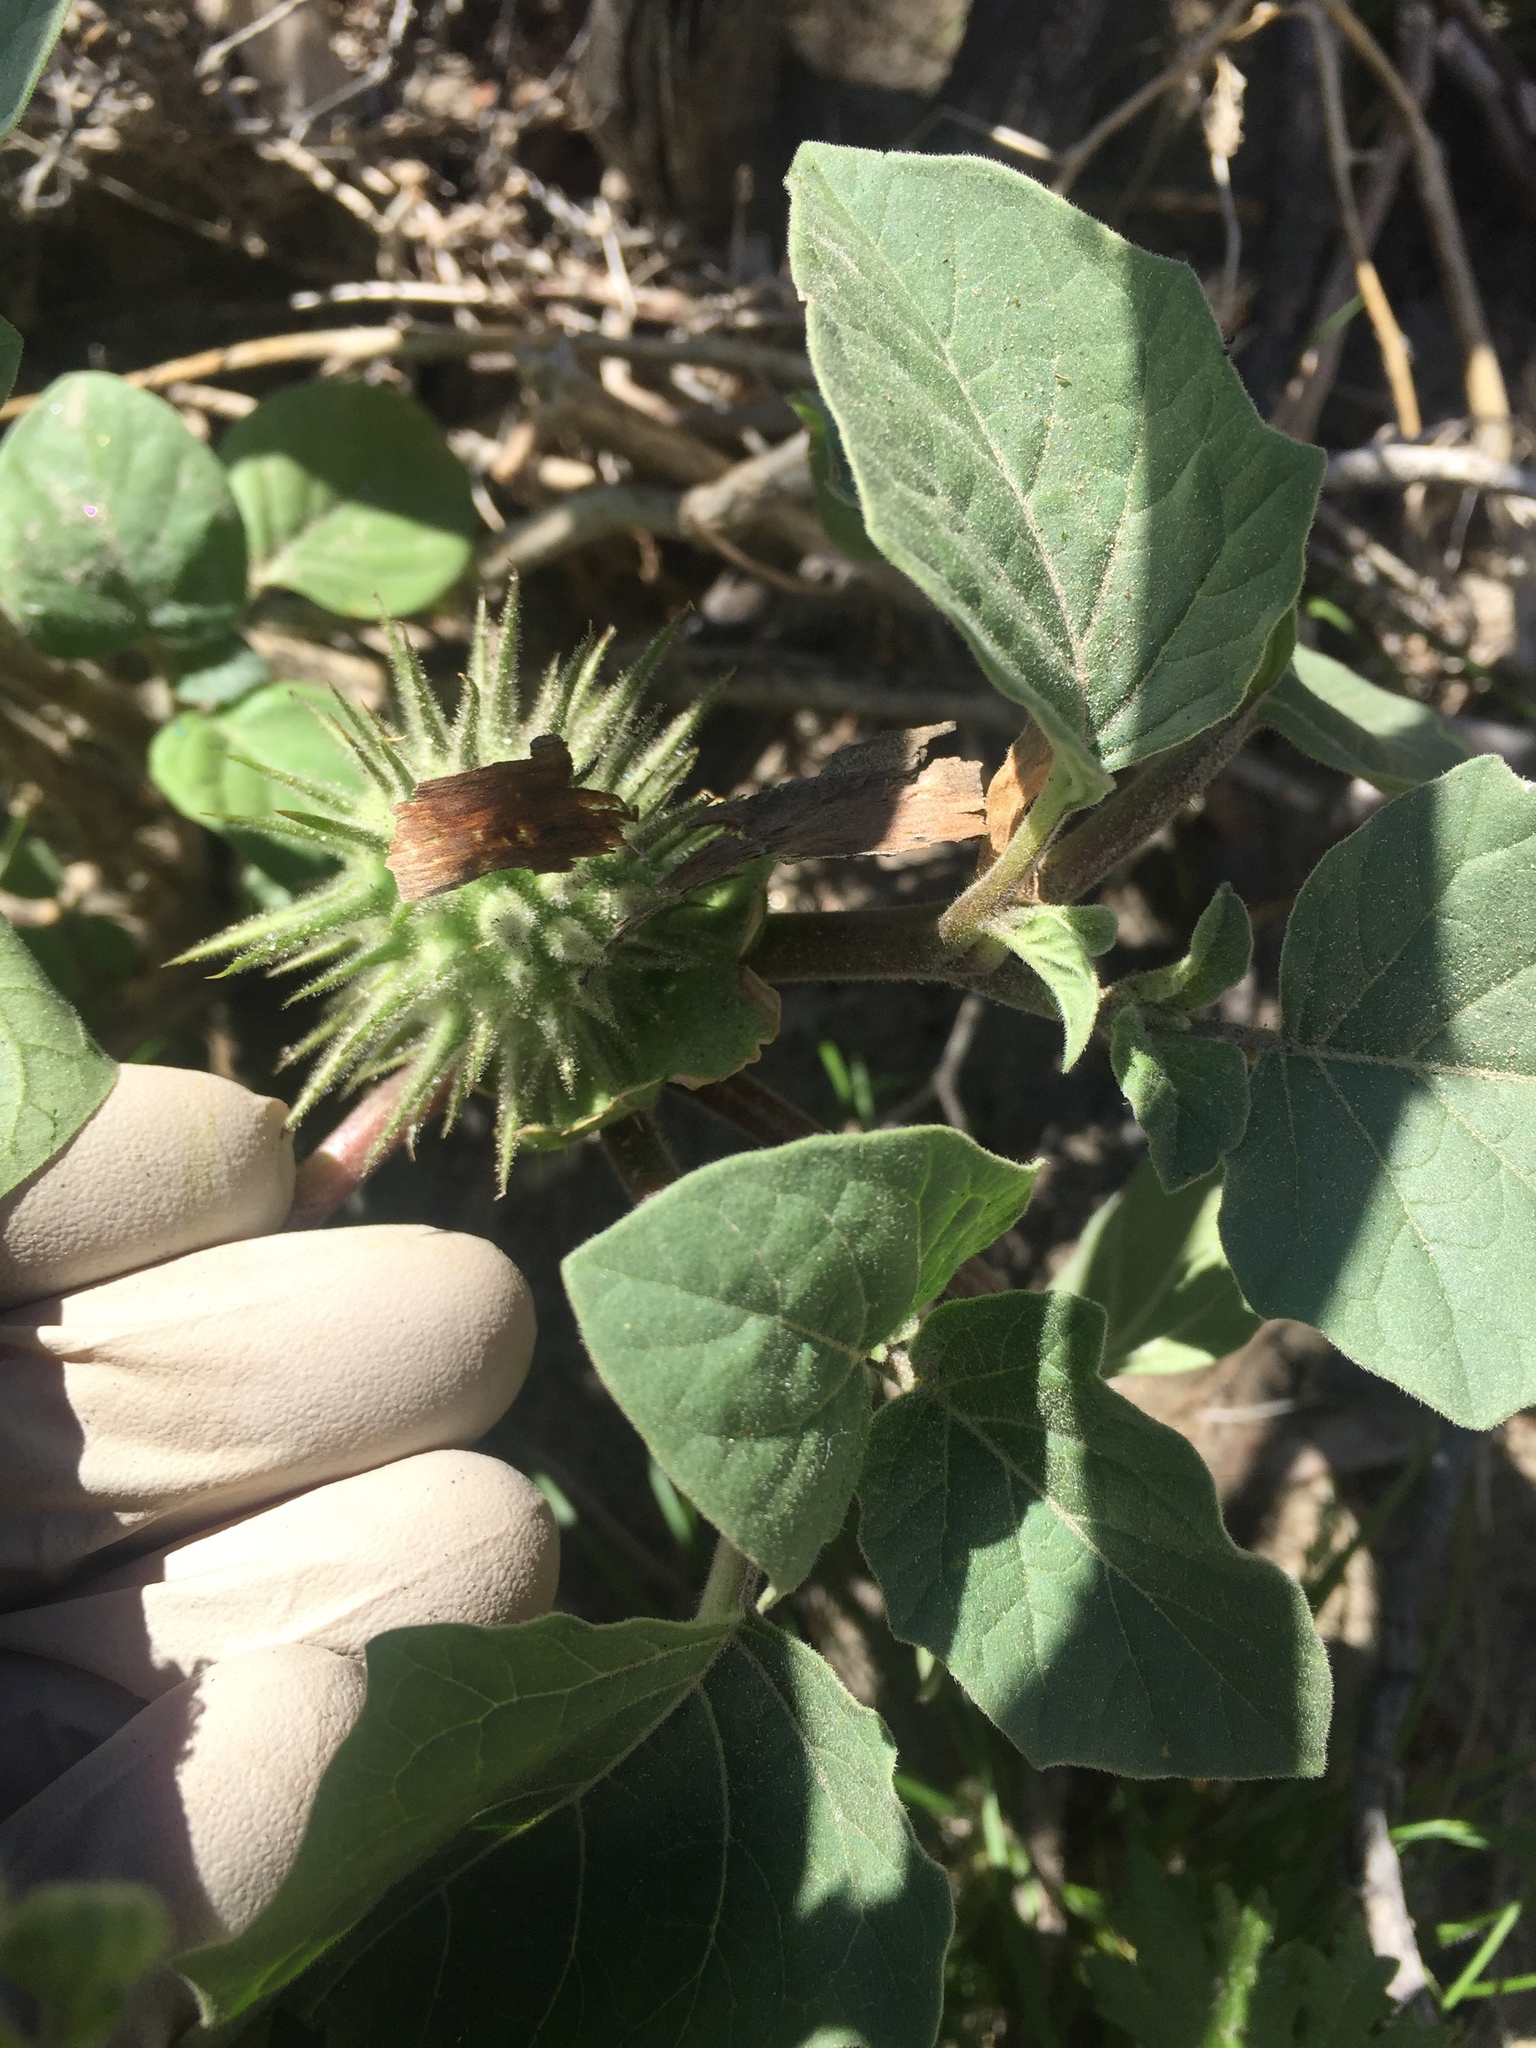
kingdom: Plantae
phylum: Tracheophyta
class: Magnoliopsida
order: Solanales
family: Solanaceae
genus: Datura
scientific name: Datura discolor
